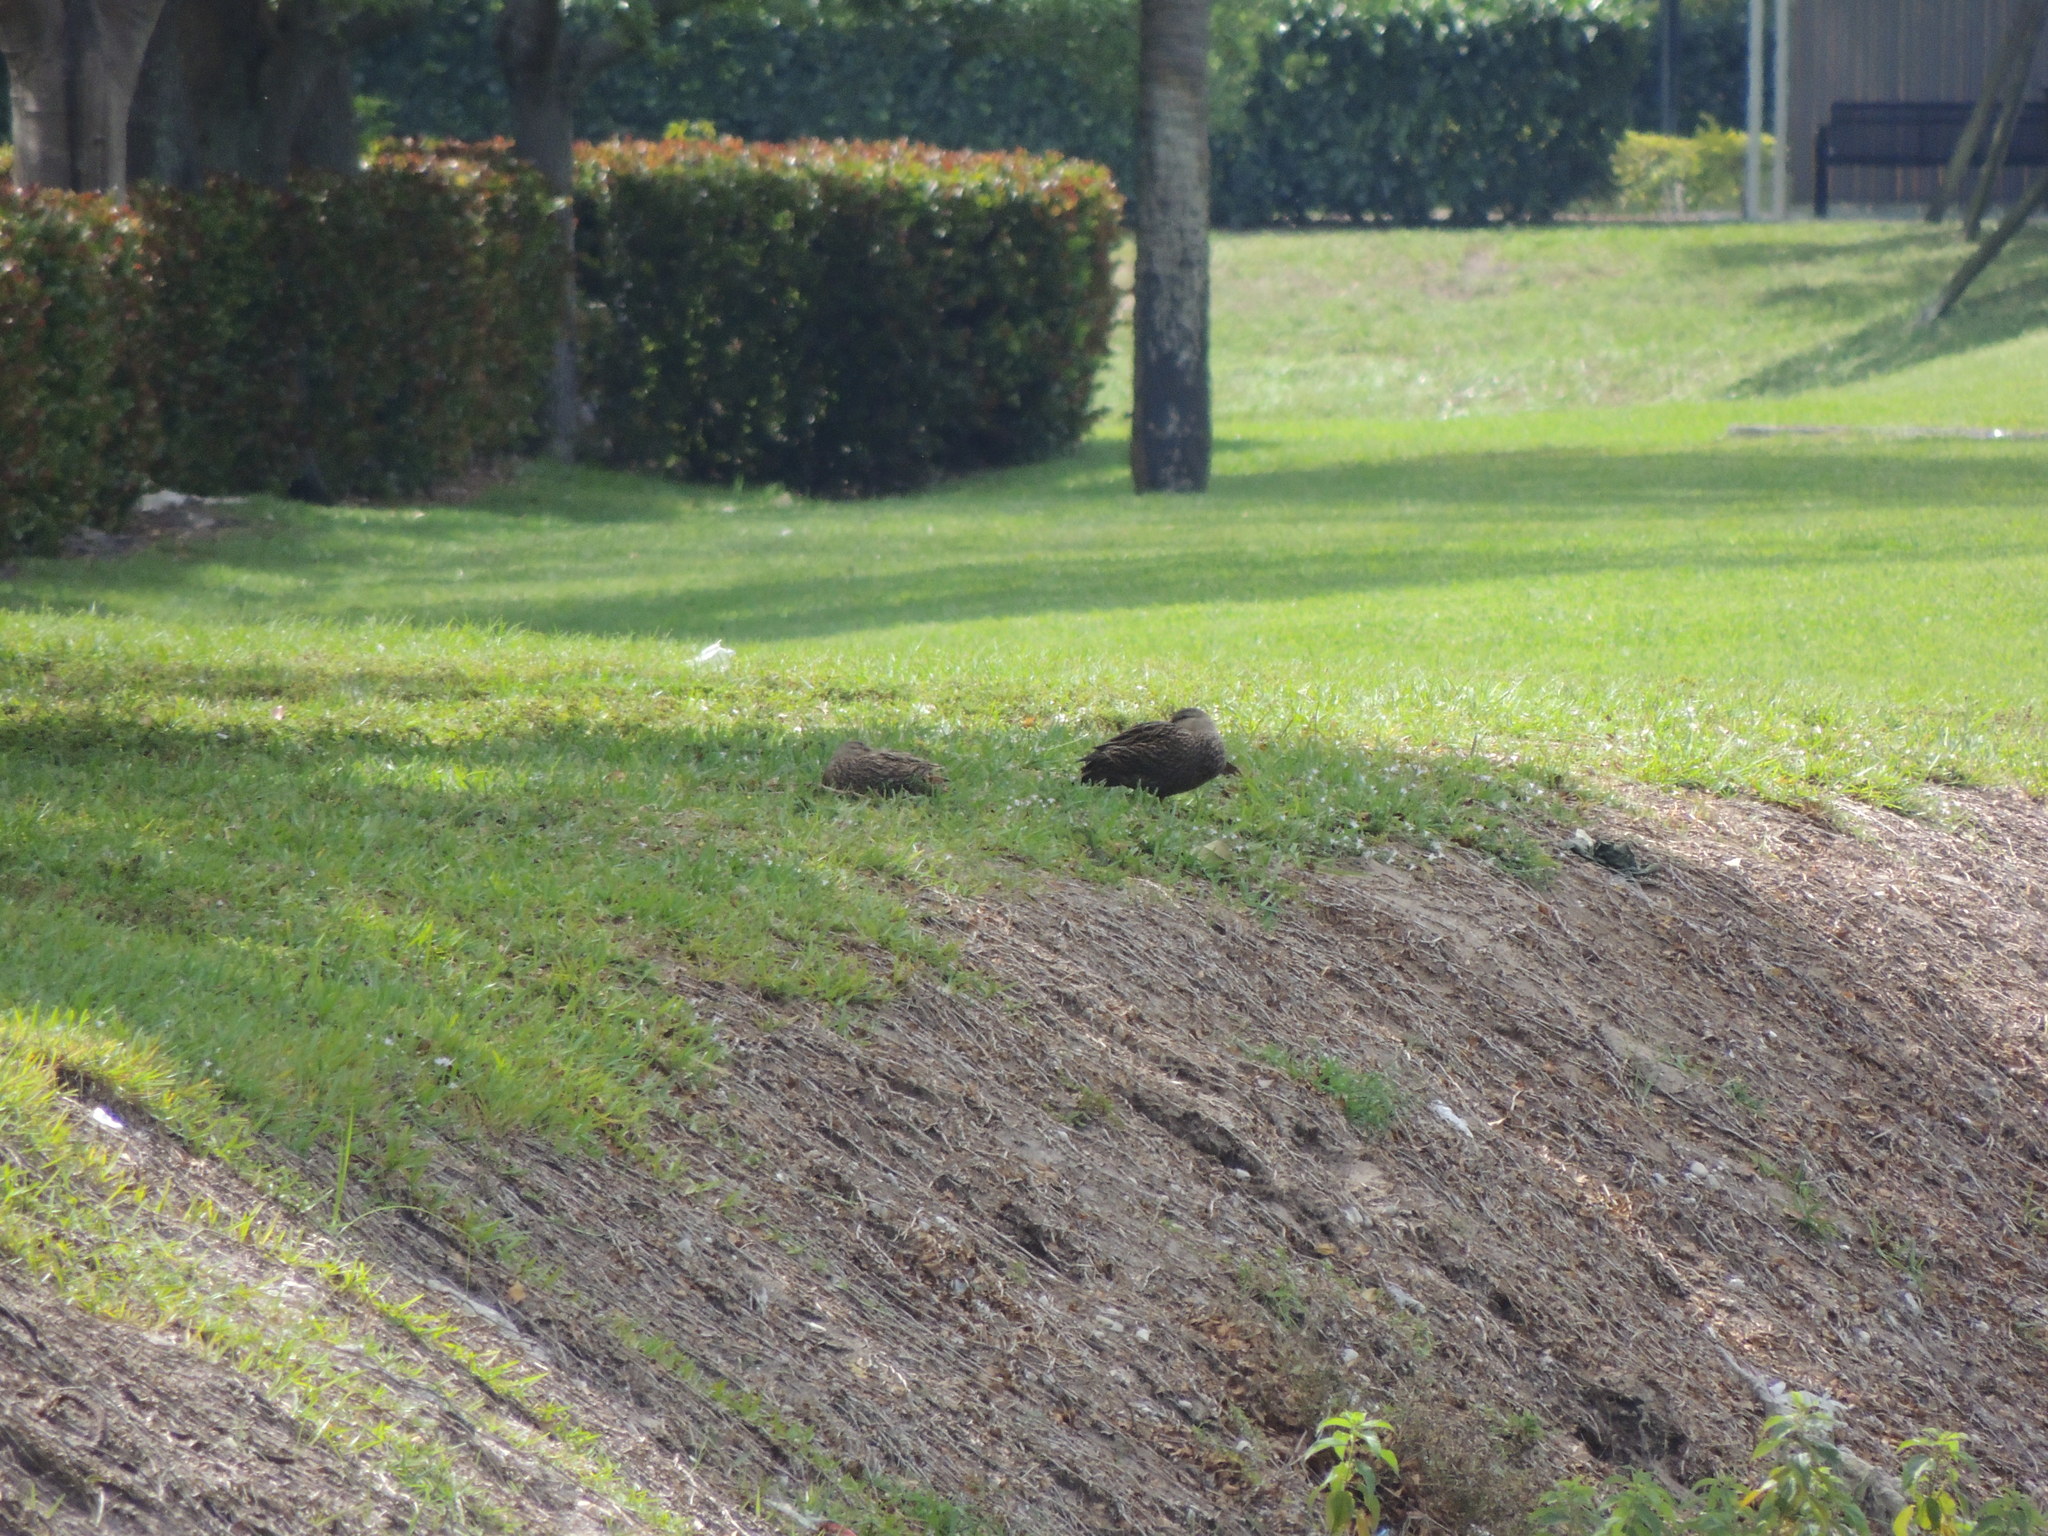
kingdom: Animalia
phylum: Chordata
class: Aves
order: Anseriformes
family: Anatidae
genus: Anas
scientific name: Anas
